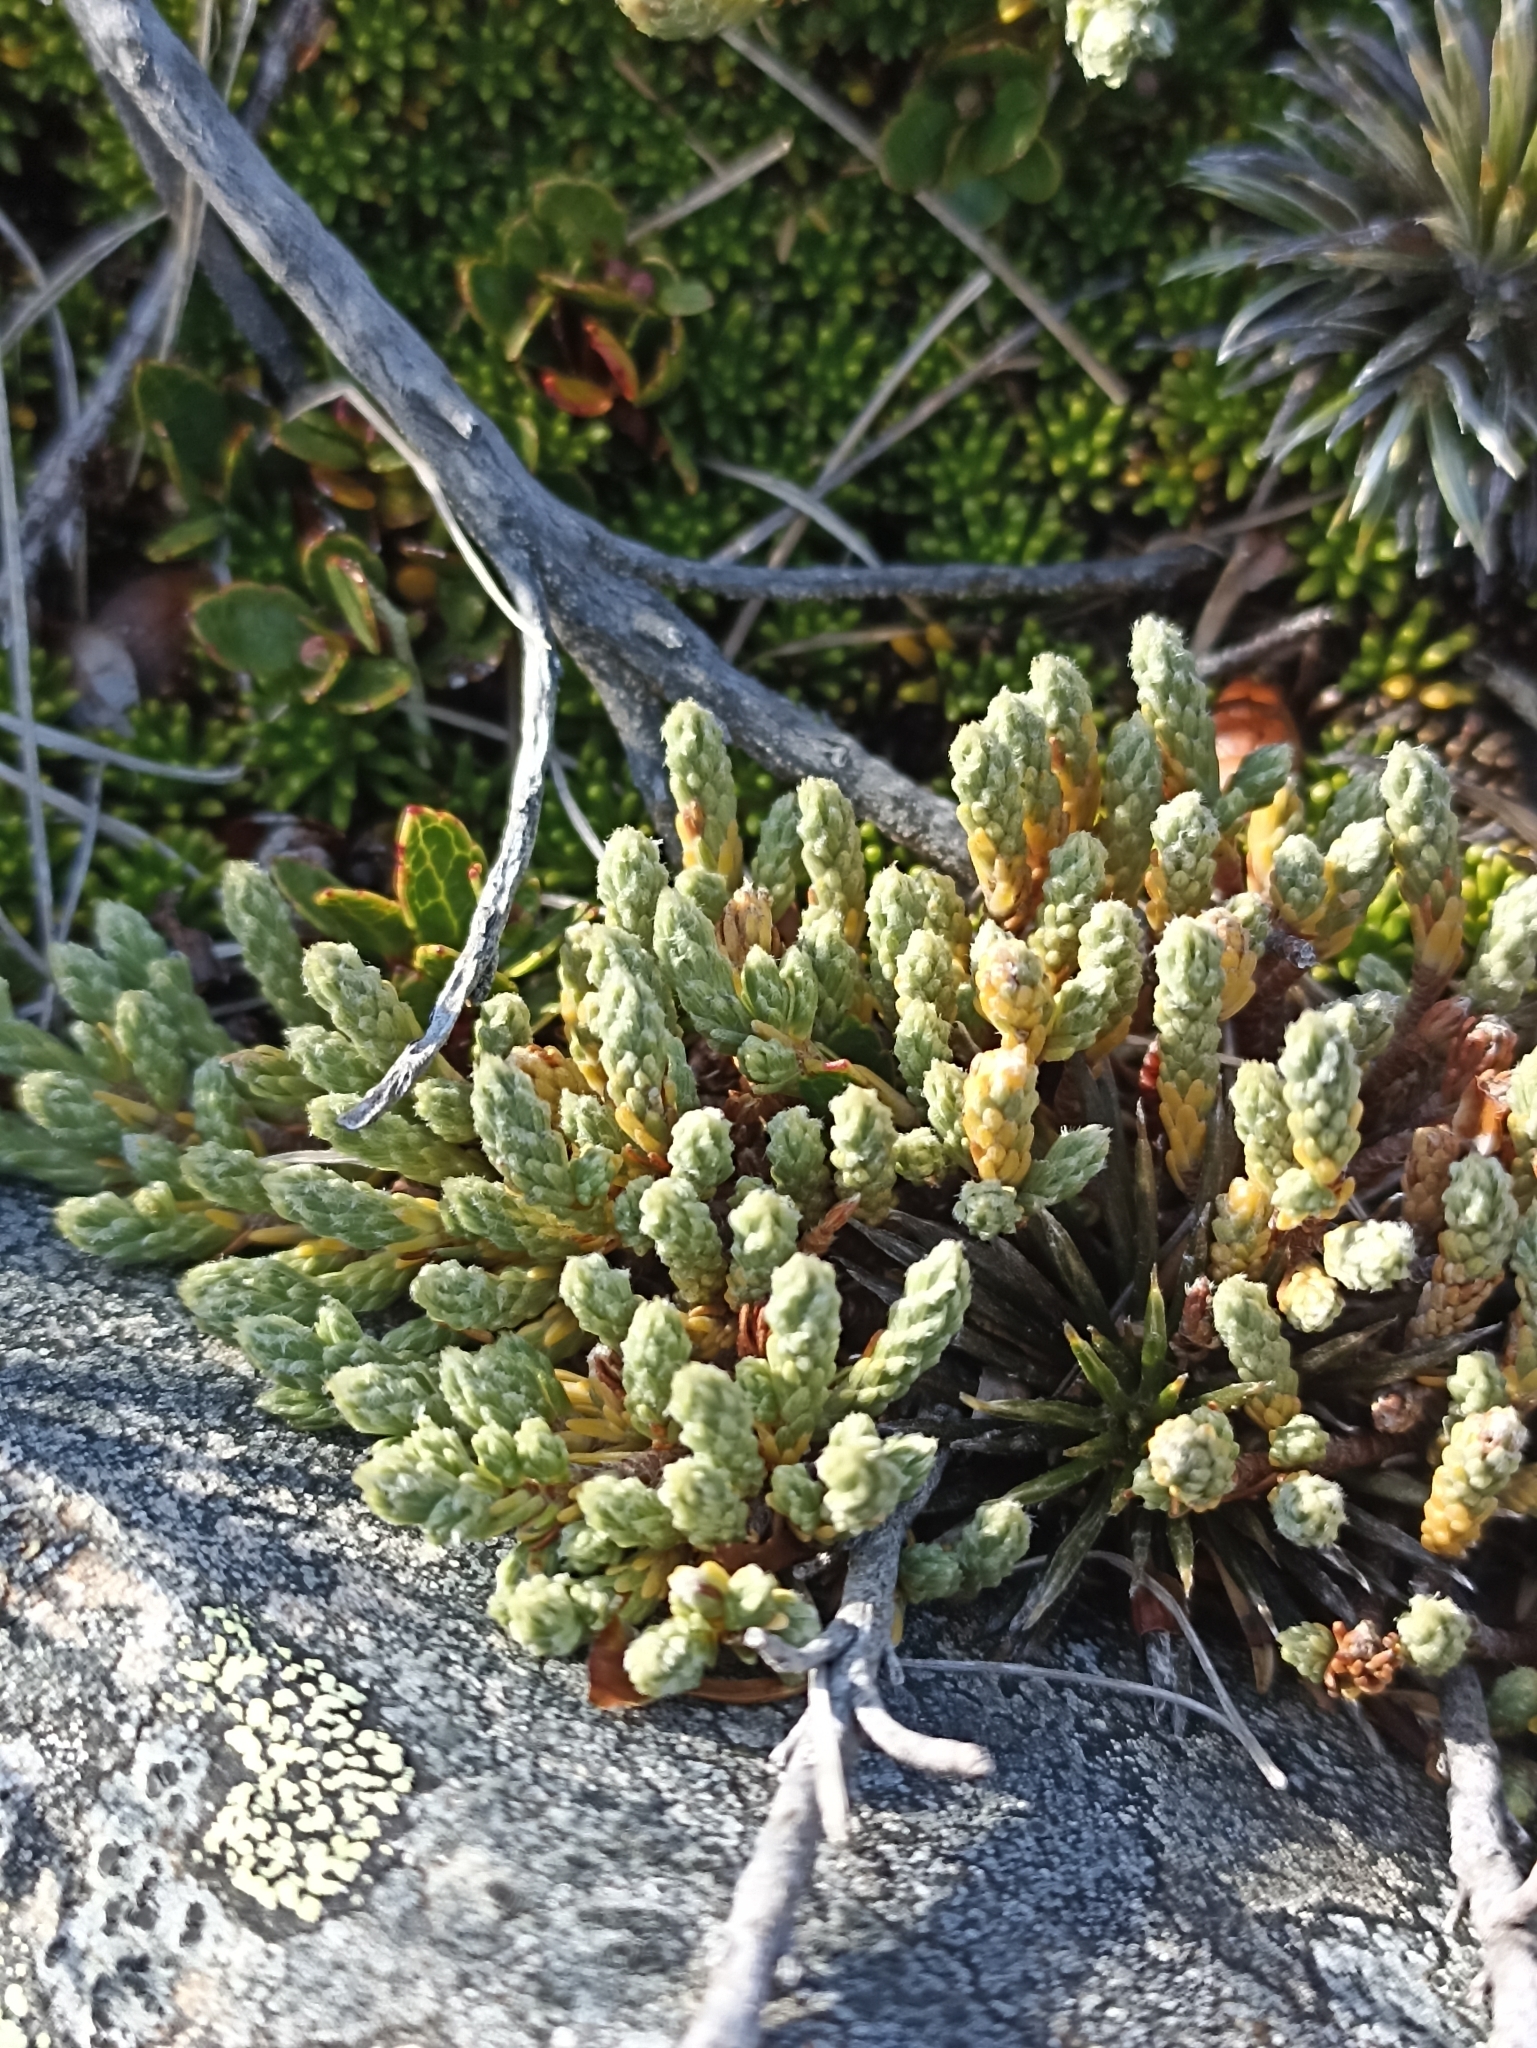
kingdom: Plantae
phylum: Tracheophyta
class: Magnoliopsida
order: Malvales
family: Thymelaeaceae
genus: Kelleria
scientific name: Kelleria dieffenbachii
